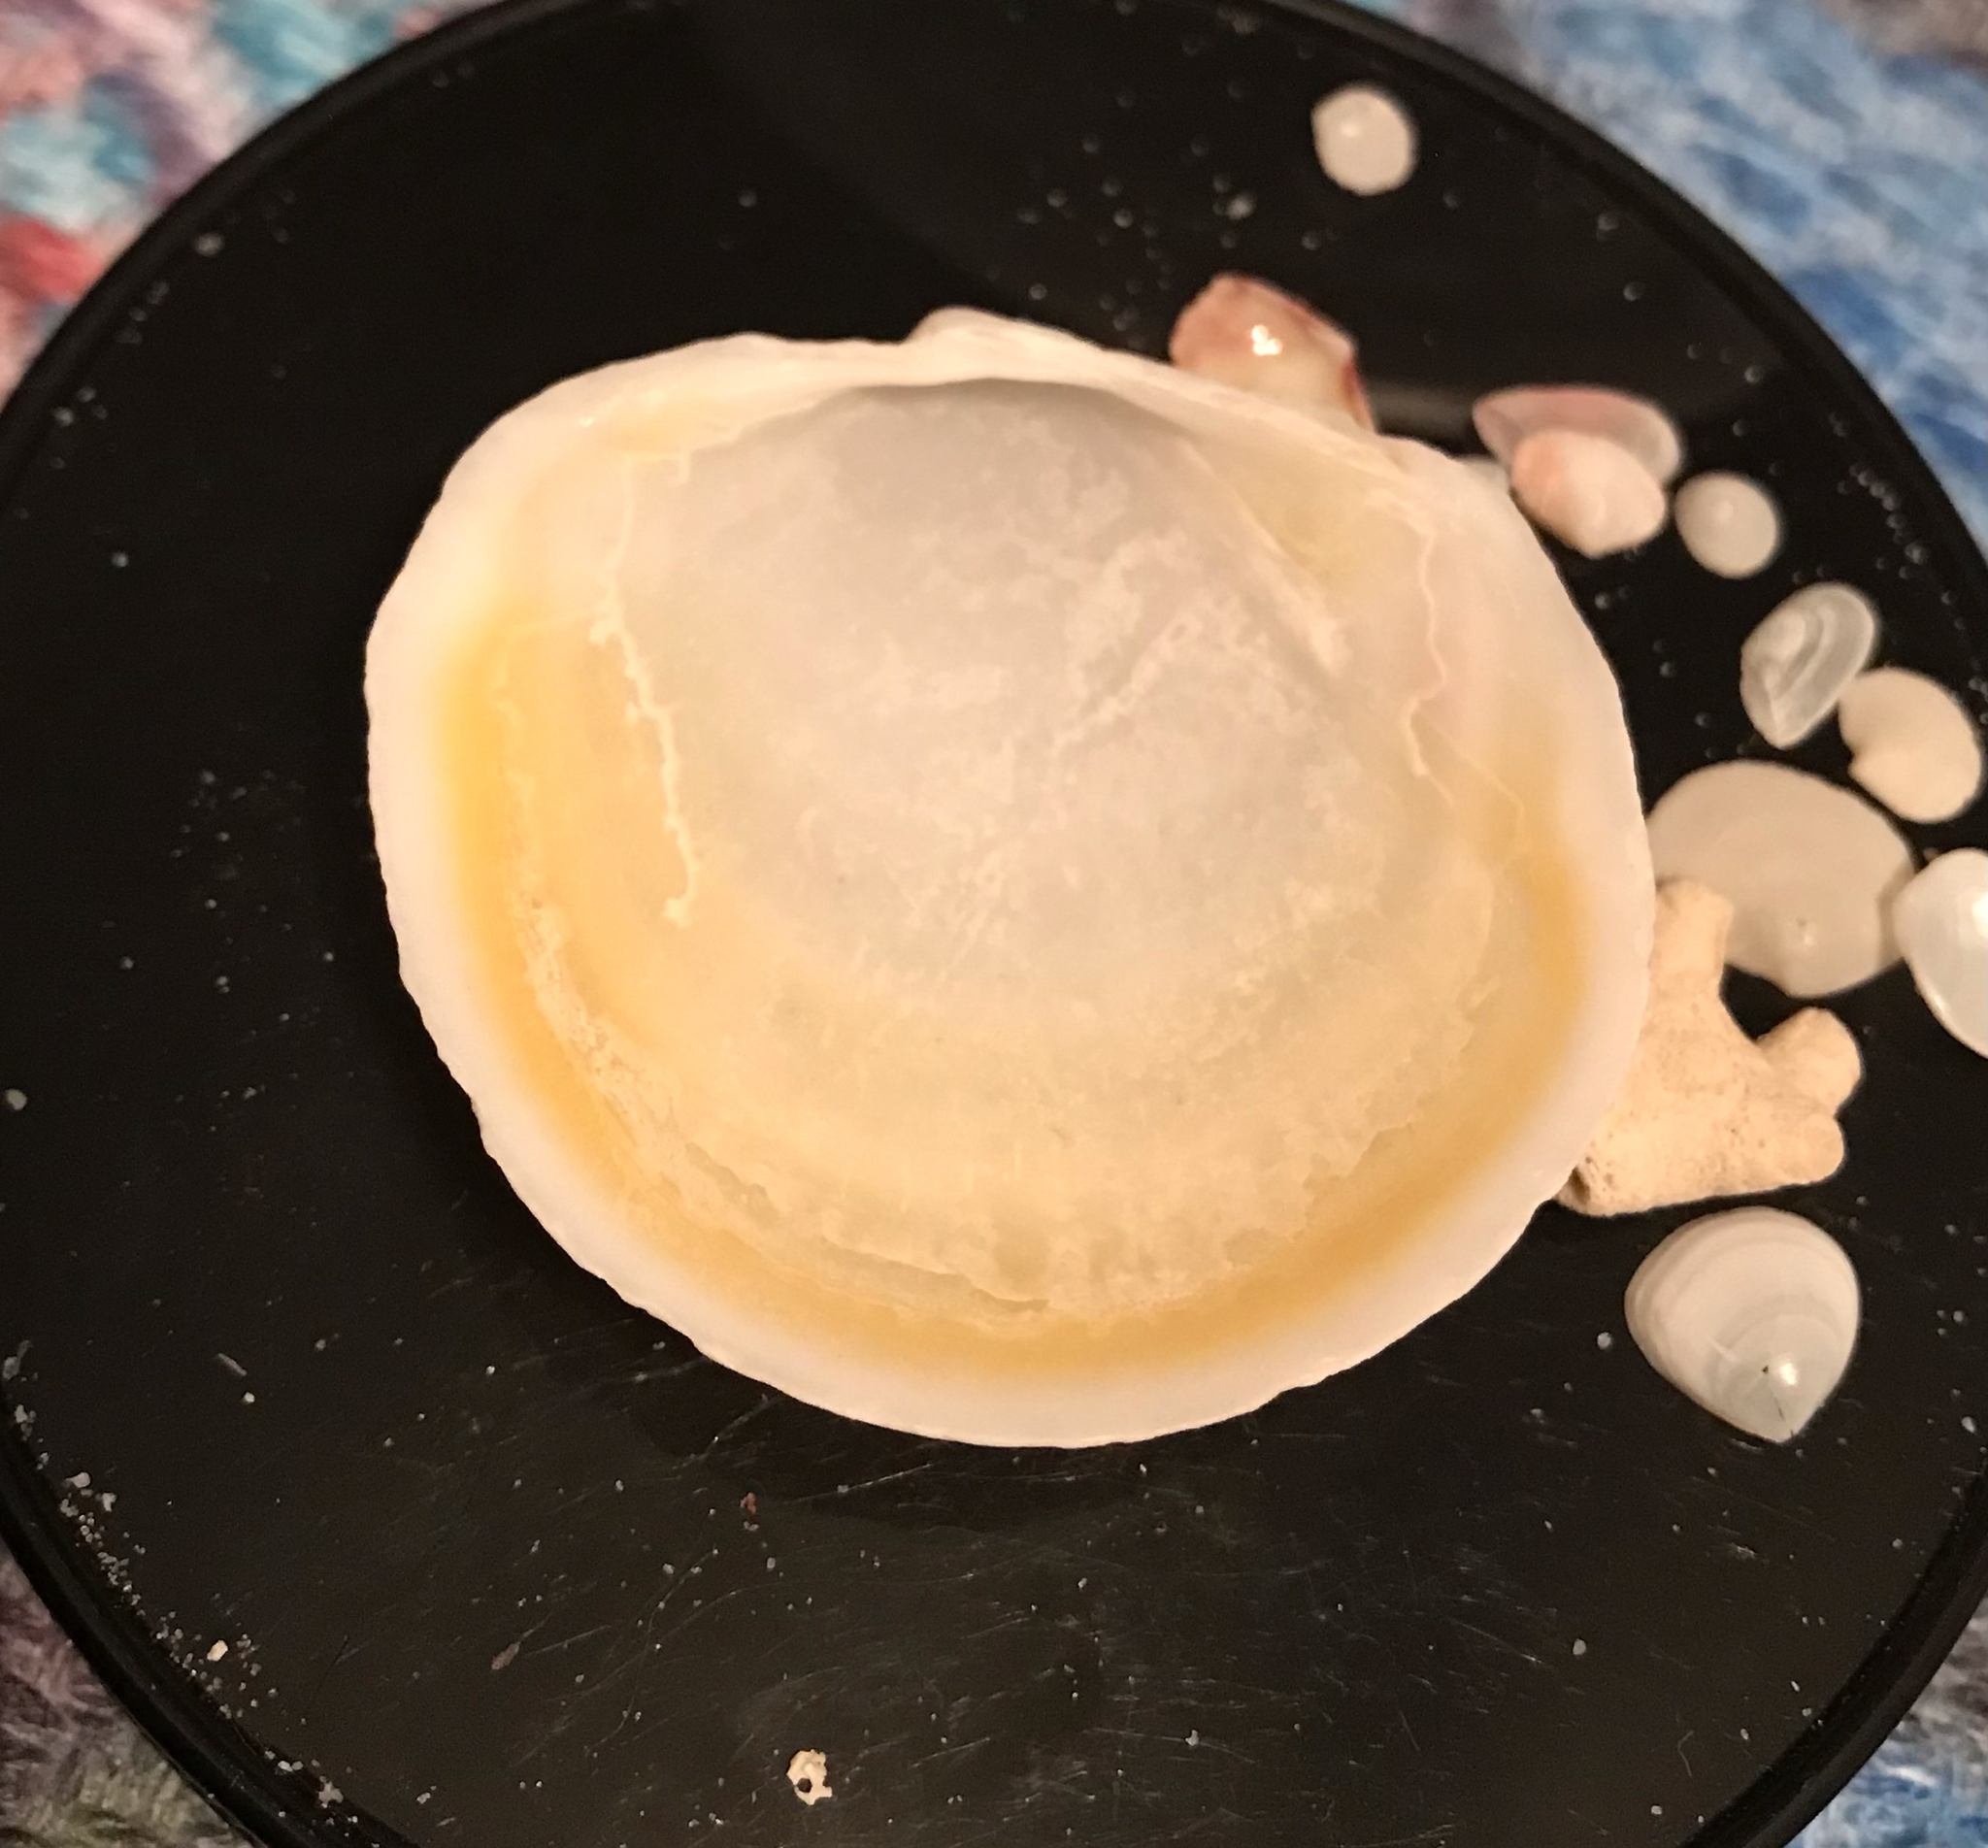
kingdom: Animalia
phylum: Mollusca
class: Bivalvia
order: Lucinida
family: Lucinidae
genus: Anodontia
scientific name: Anodontia alba
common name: Buttercup lucine
